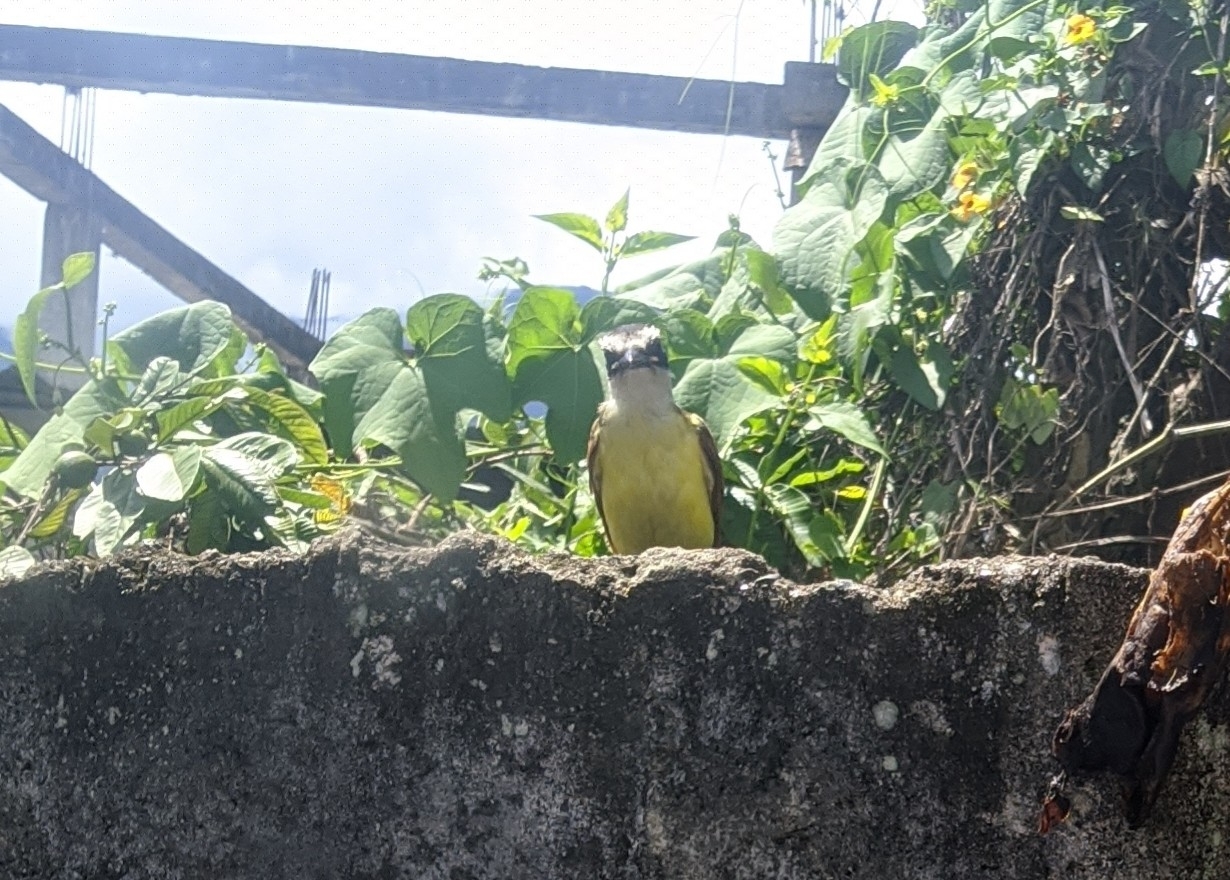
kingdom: Animalia
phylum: Chordata
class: Aves
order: Passeriformes
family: Tyrannidae
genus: Pitangus
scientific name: Pitangus sulphuratus
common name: Great kiskadee
